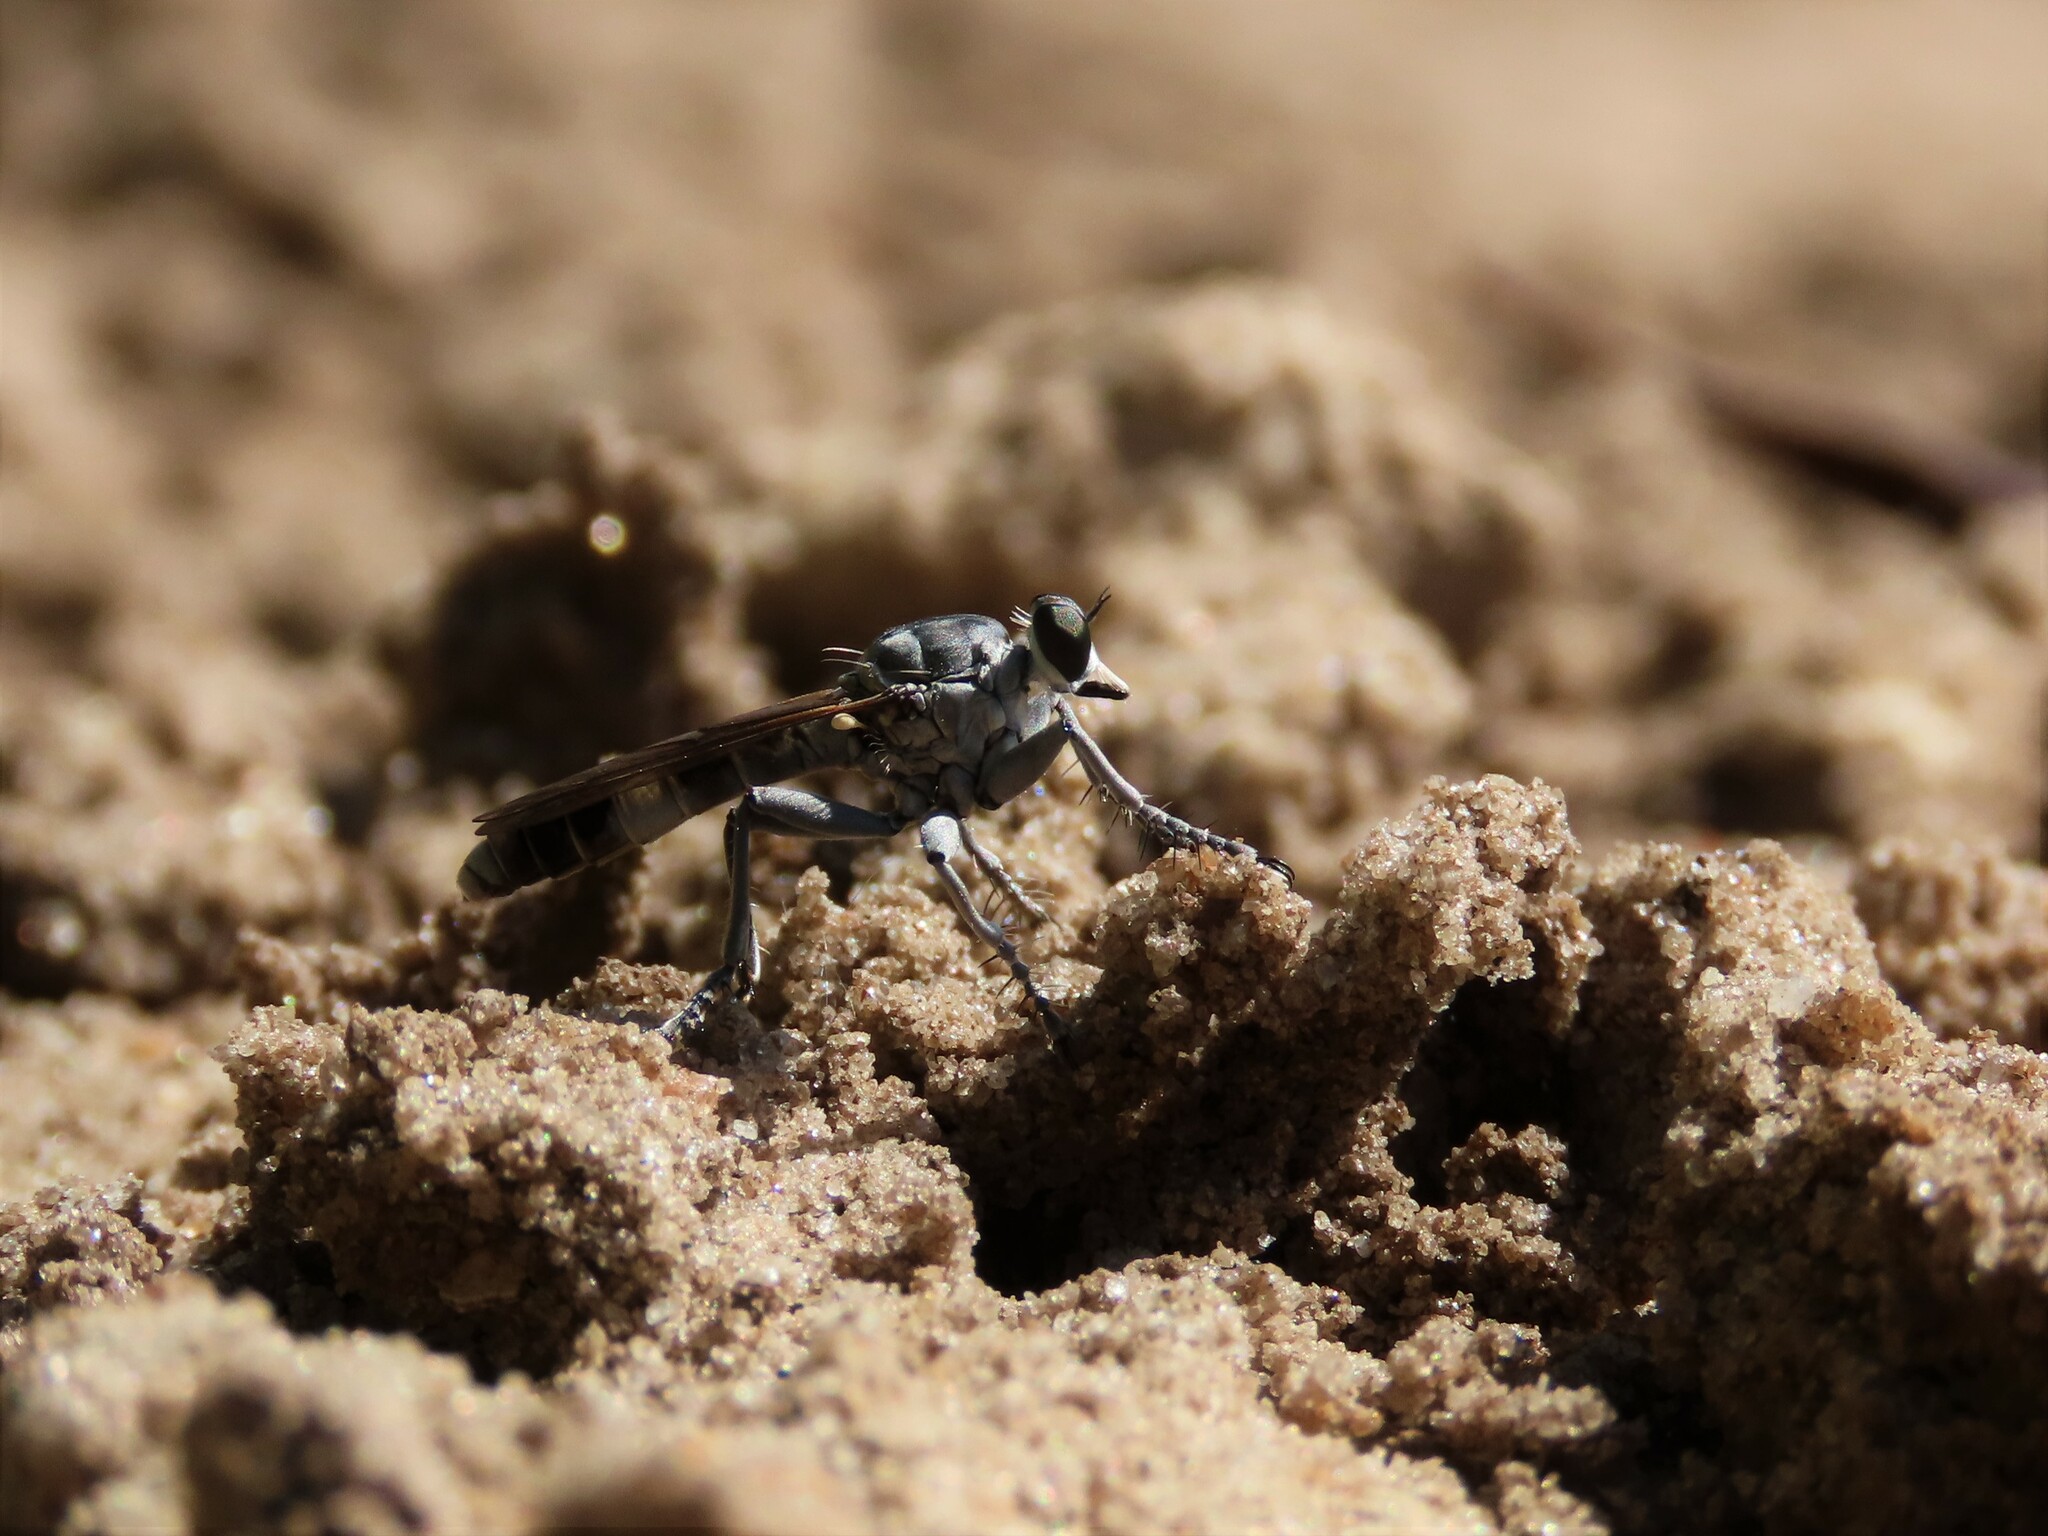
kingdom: Animalia
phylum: Arthropoda
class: Insecta
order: Diptera
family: Asilidae
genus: Stichopogon
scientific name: Stichopogon trifasciatus
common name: Three-banded robber fly
